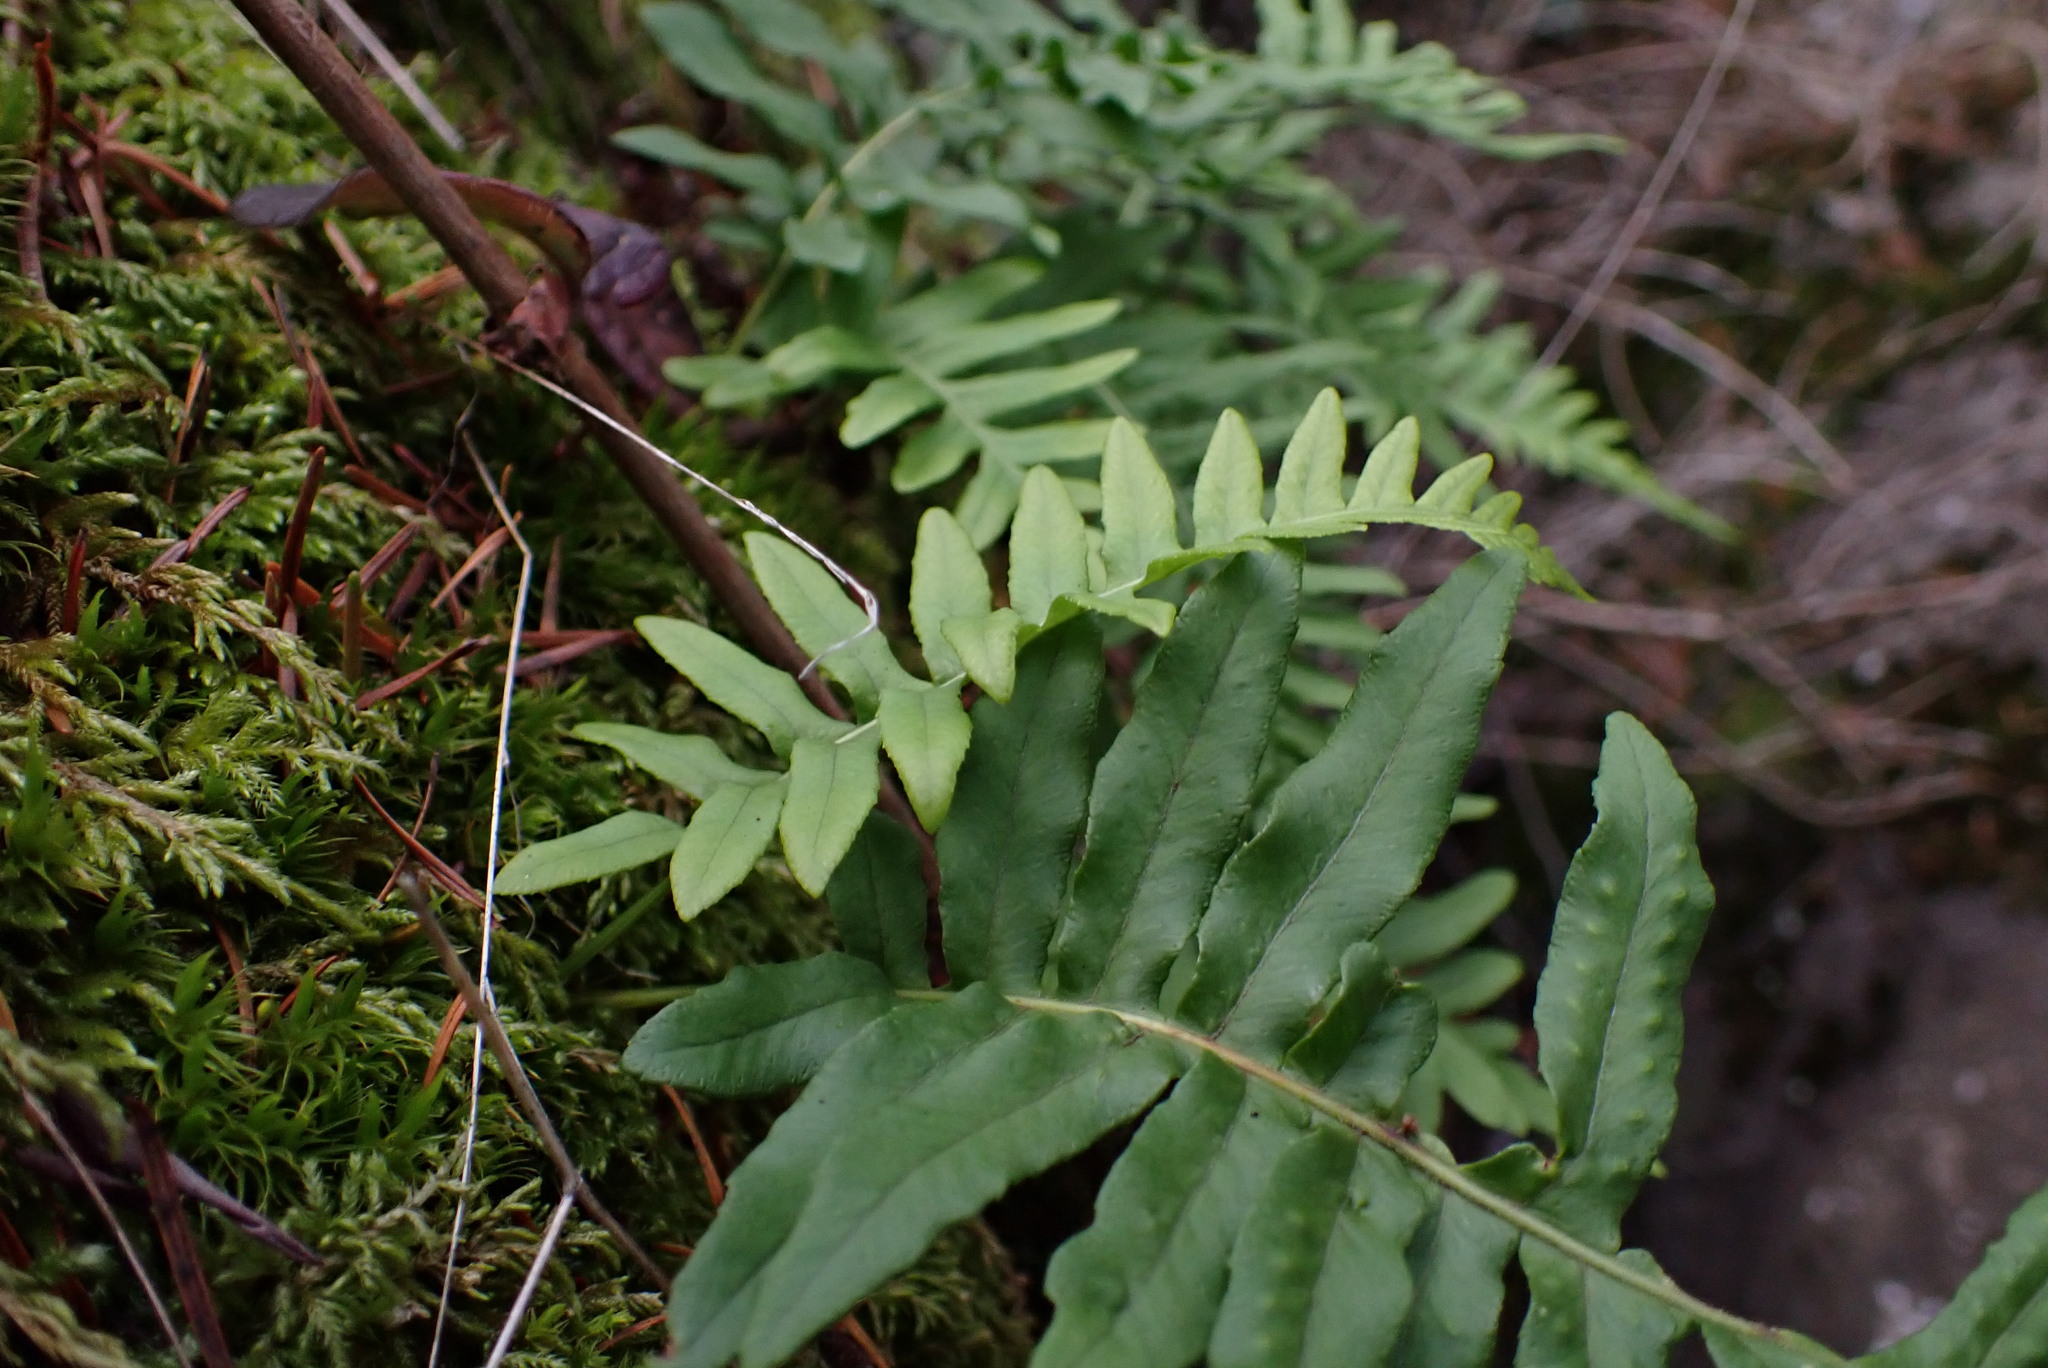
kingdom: Plantae
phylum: Tracheophyta
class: Polypodiopsida
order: Polypodiales
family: Polypodiaceae
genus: Polypodium
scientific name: Polypodium glycyrrhiza
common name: Licorice fern
